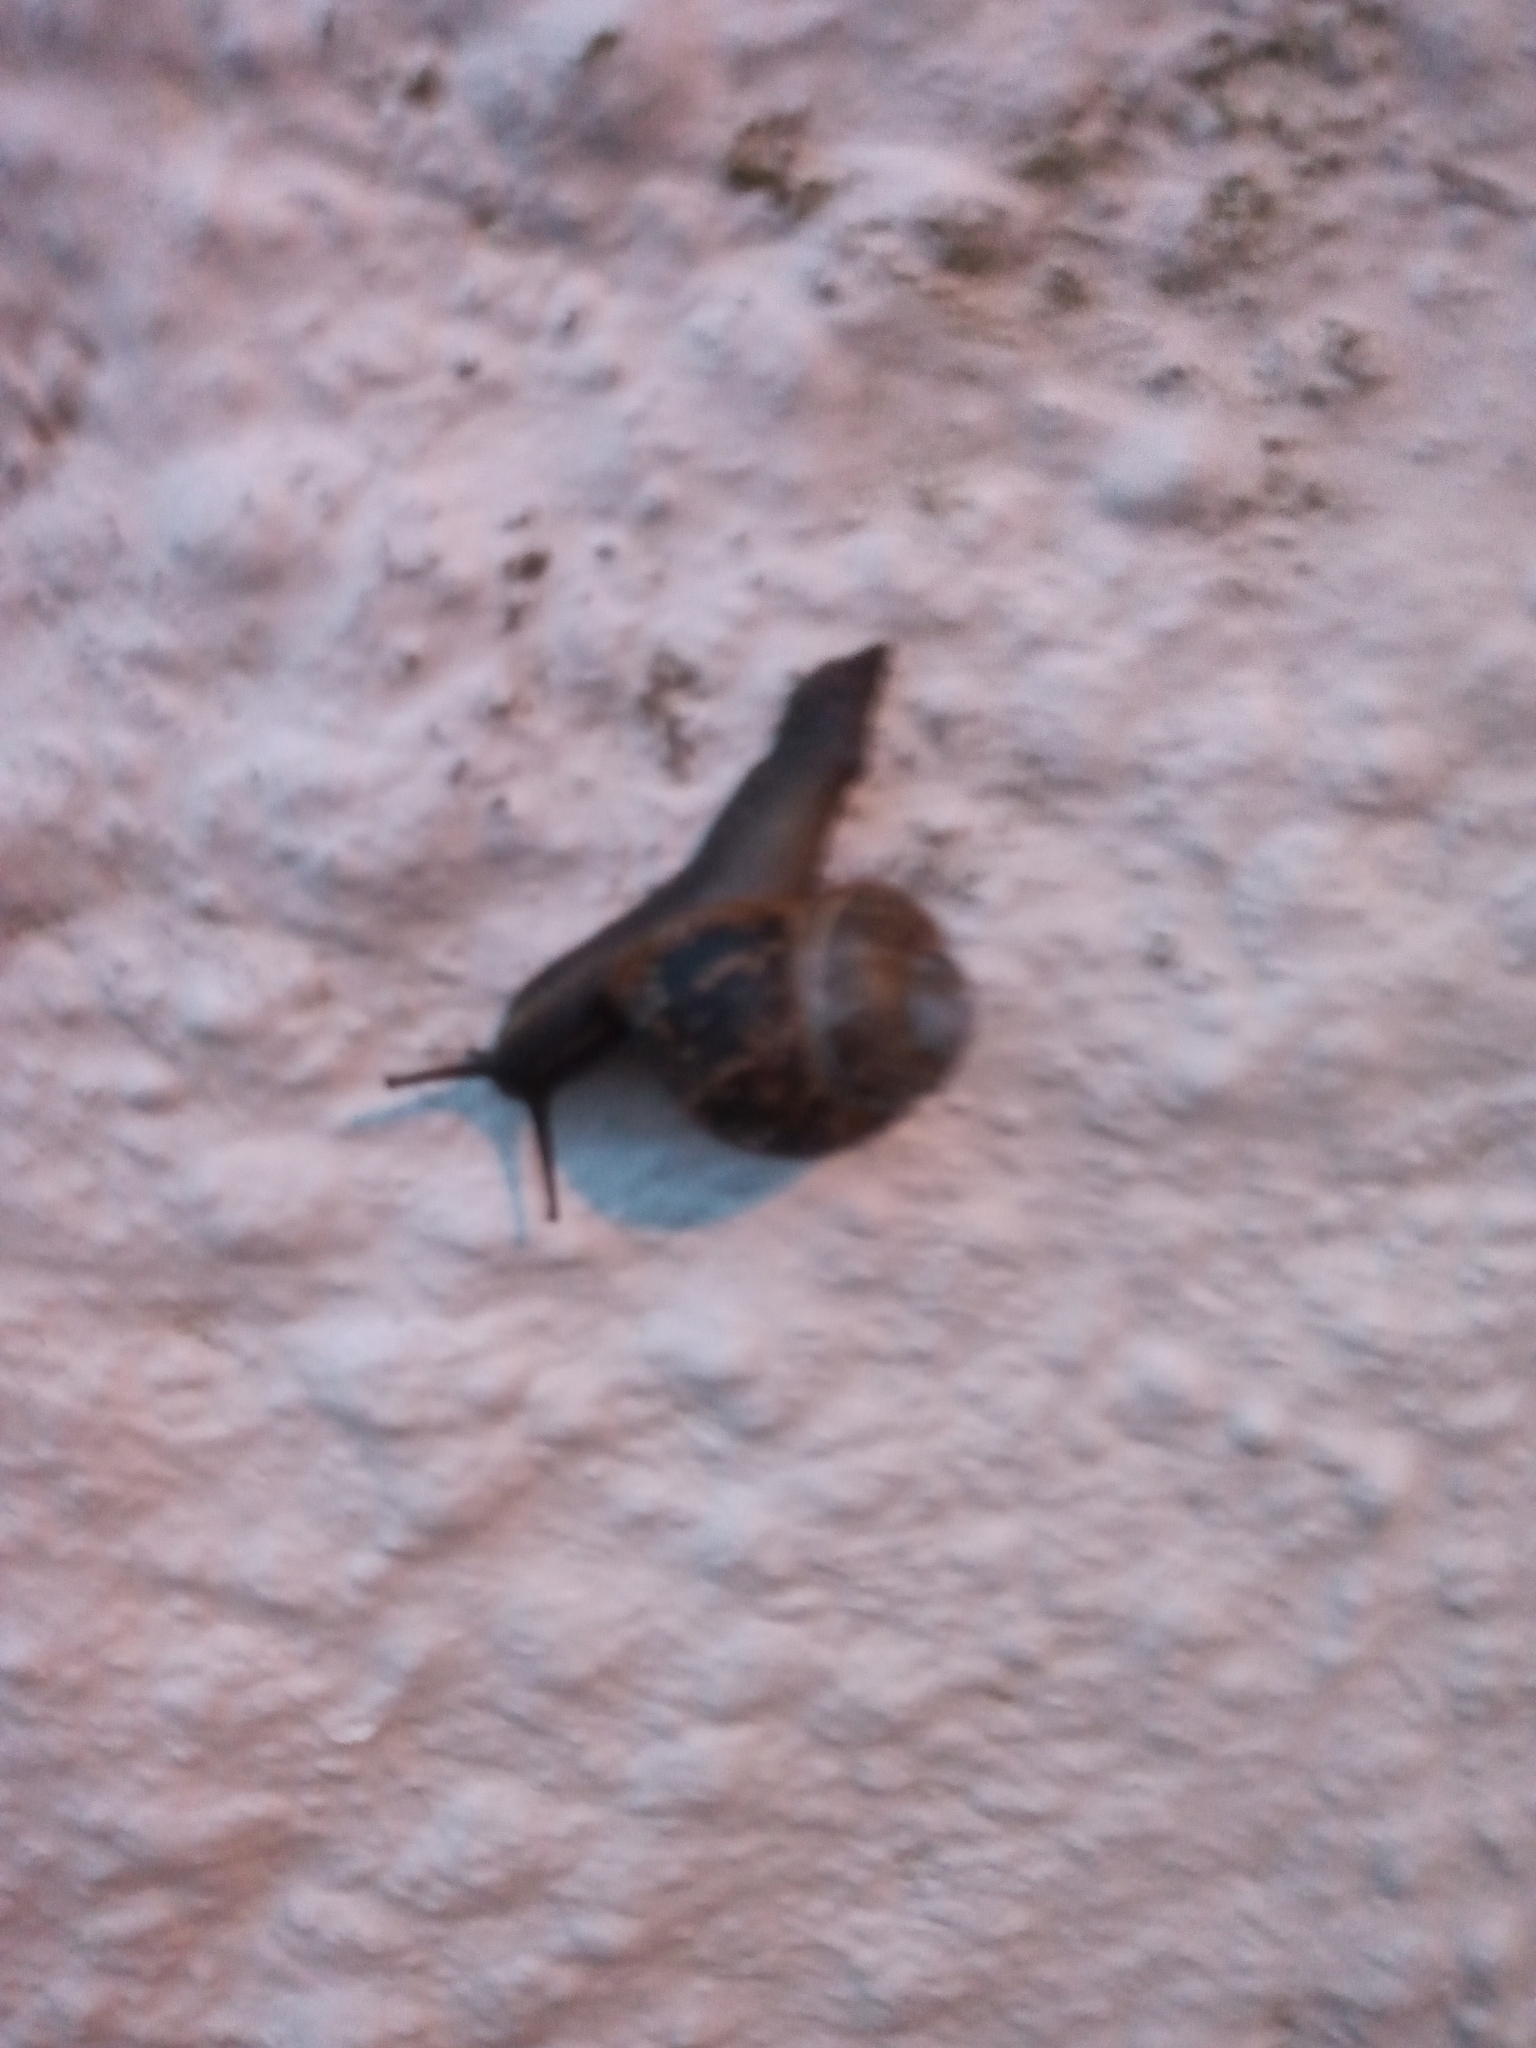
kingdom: Animalia
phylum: Mollusca
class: Gastropoda
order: Stylommatophora
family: Helicidae
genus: Cornu
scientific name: Cornu aspersum
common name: Brown garden snail
